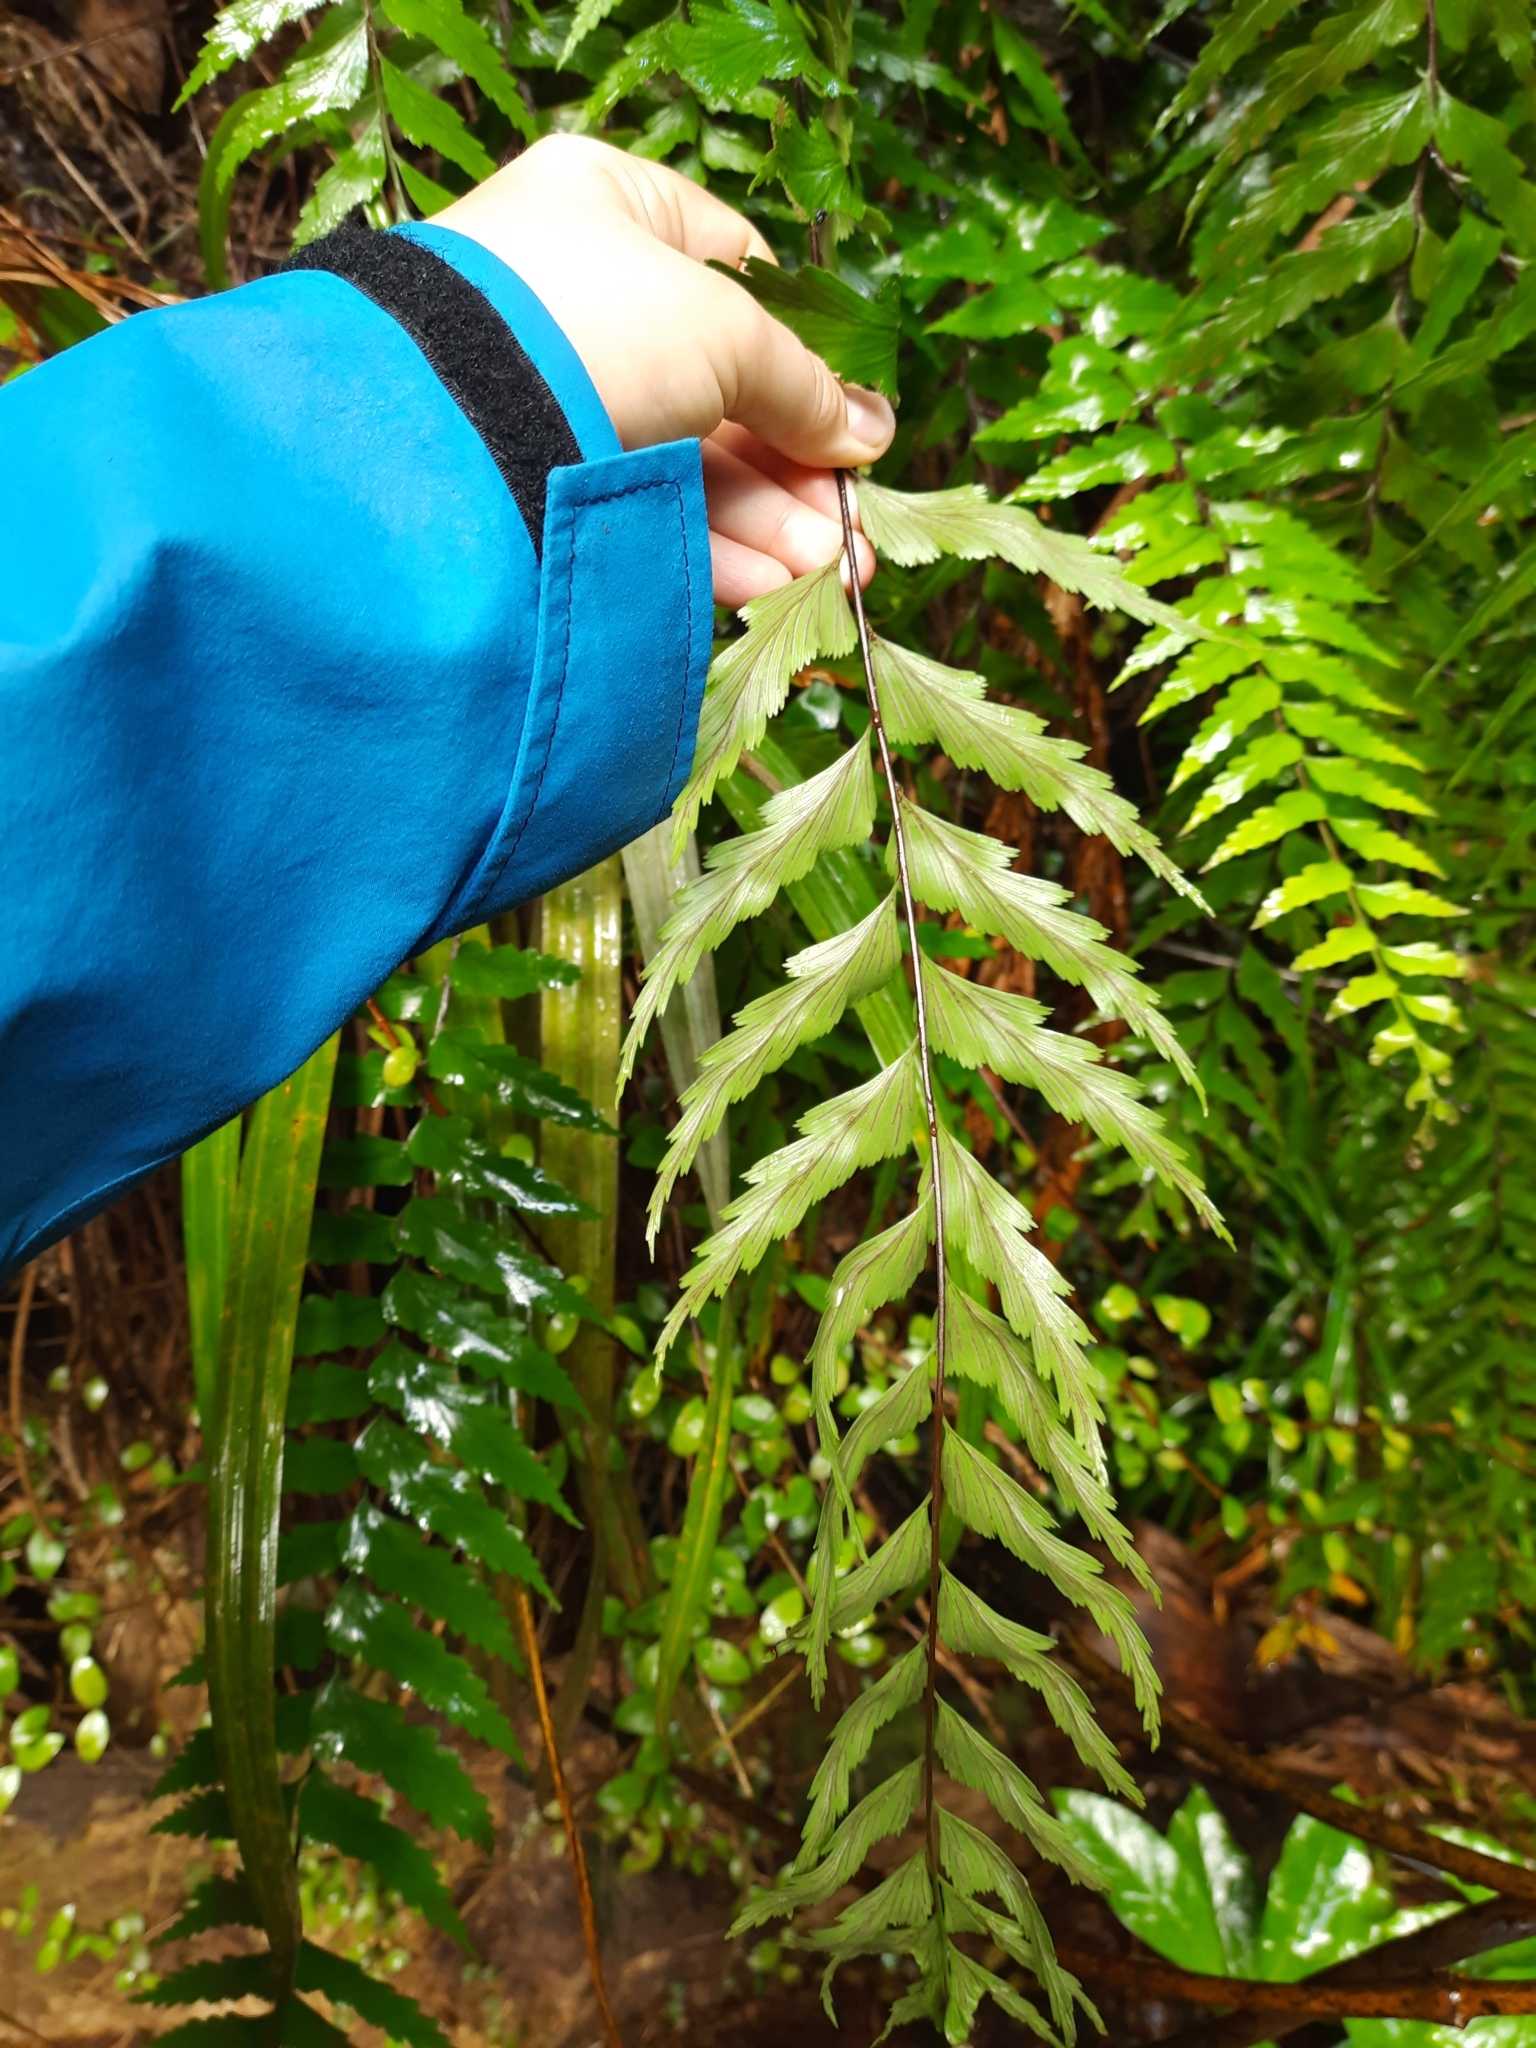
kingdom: Plantae
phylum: Tracheophyta
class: Polypodiopsida
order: Polypodiales
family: Aspleniaceae
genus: Asplenium
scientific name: Asplenium polyodon
